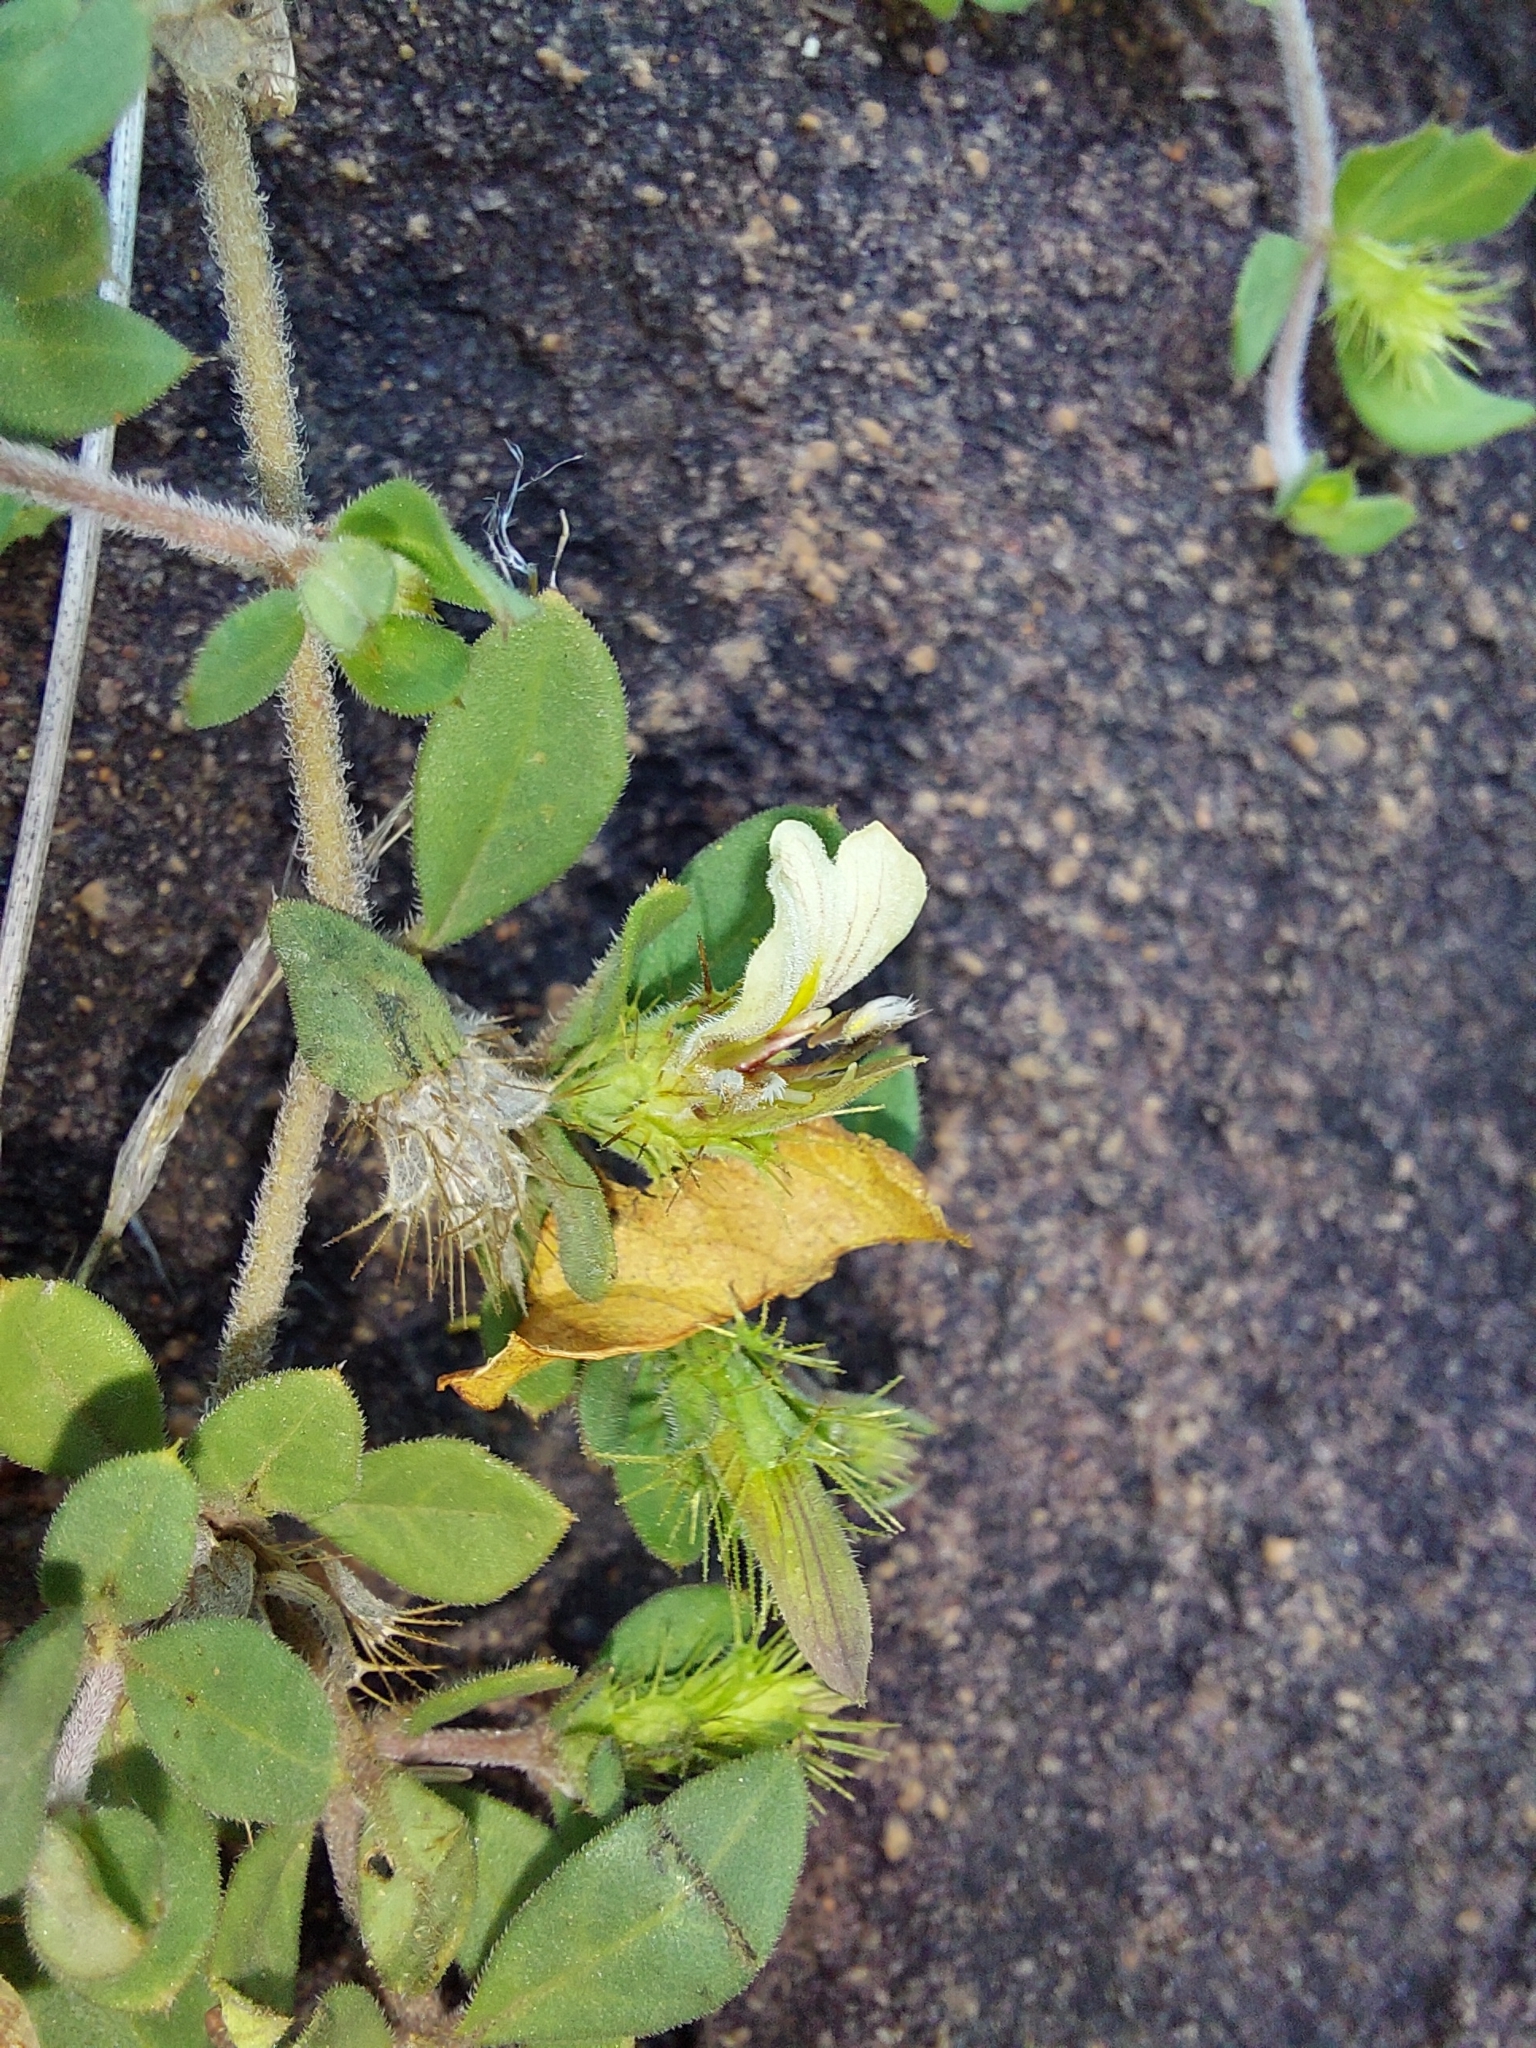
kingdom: Plantae
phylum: Tracheophyta
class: Magnoliopsida
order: Lamiales
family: Acanthaceae
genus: Blepharis
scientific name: Blepharis maderaspatensis
